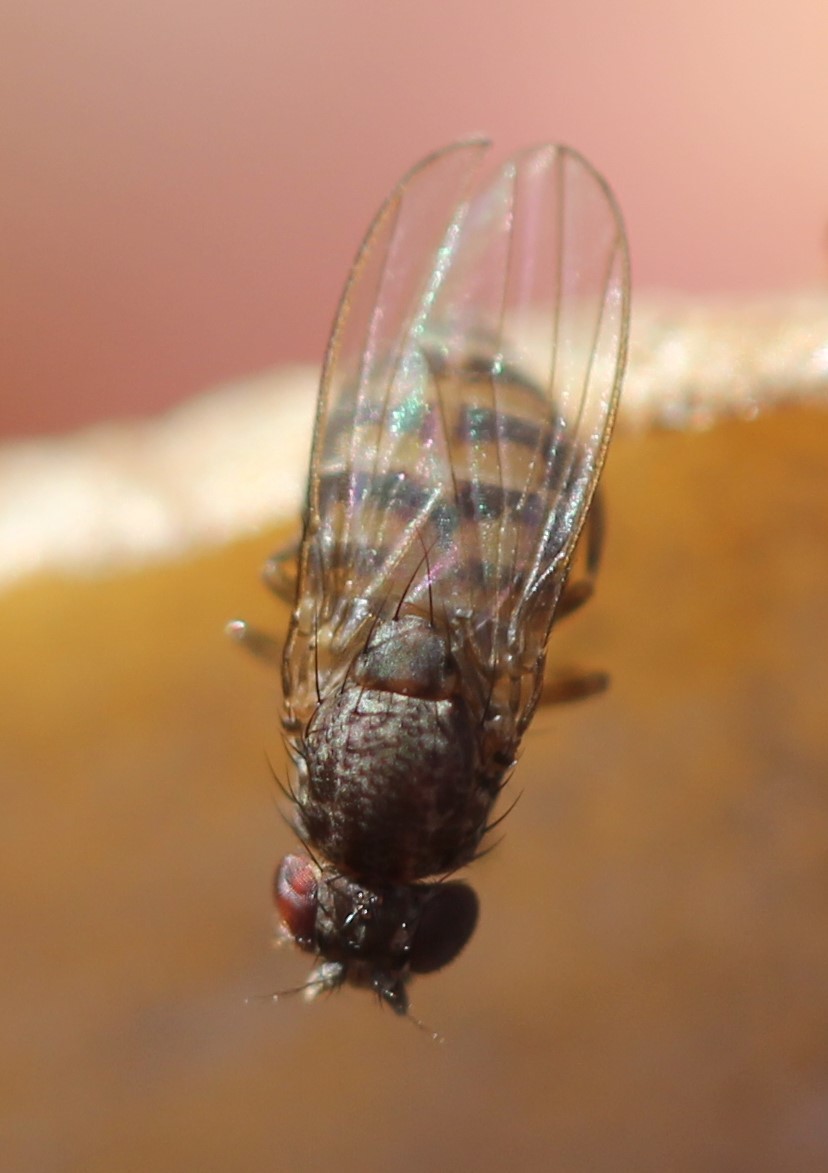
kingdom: Animalia
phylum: Arthropoda
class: Insecta
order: Diptera
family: Drosophilidae
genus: Drosophila
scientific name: Drosophila hydei
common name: Pomace fly
